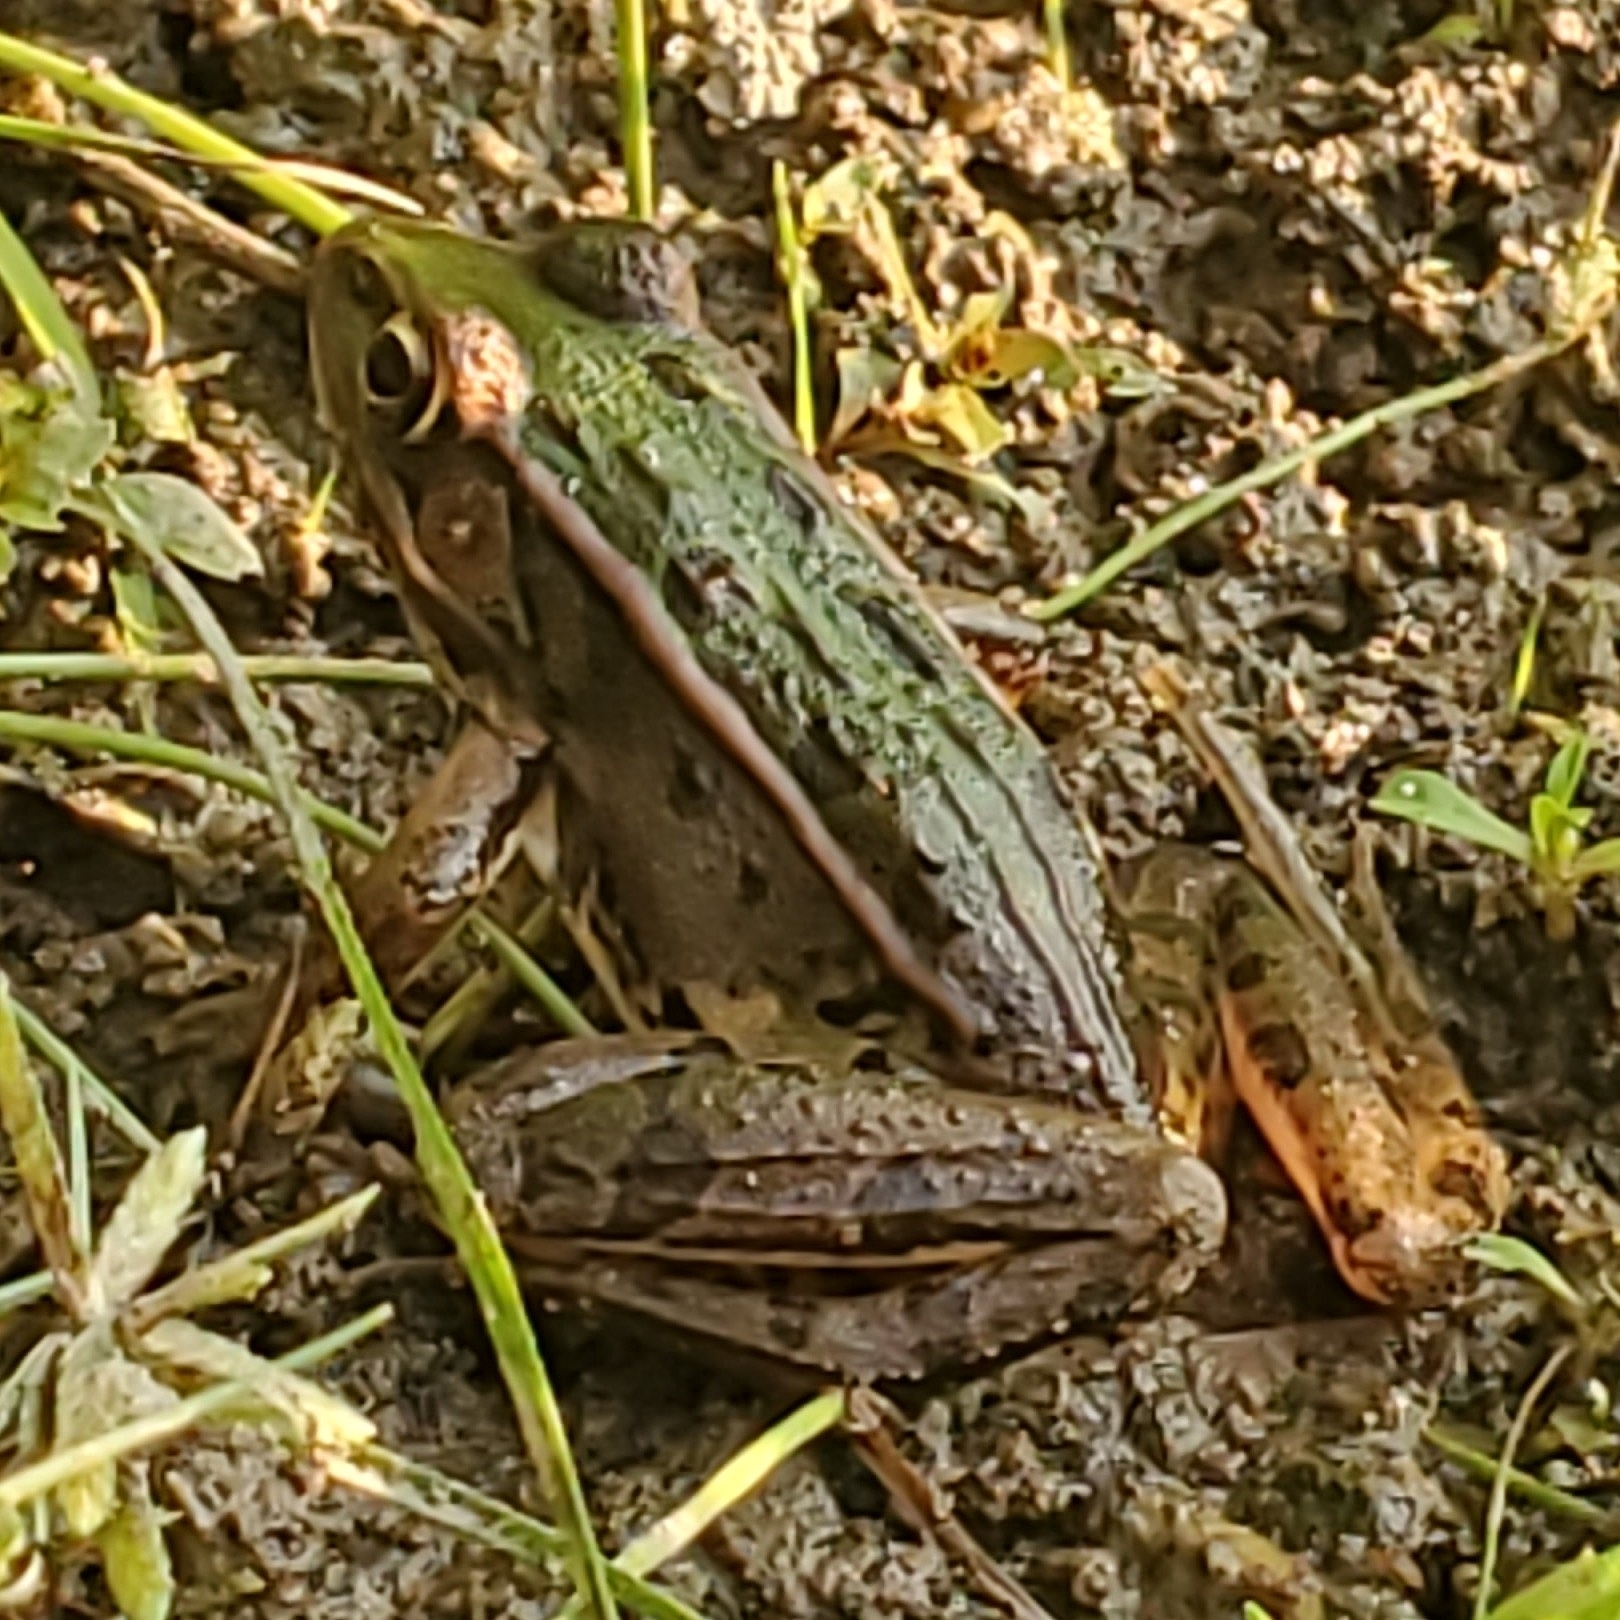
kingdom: Animalia
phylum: Chordata
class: Amphibia
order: Anura
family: Ranidae
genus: Lithobates
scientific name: Lithobates sphenocephalus
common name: Southern leopard frog
